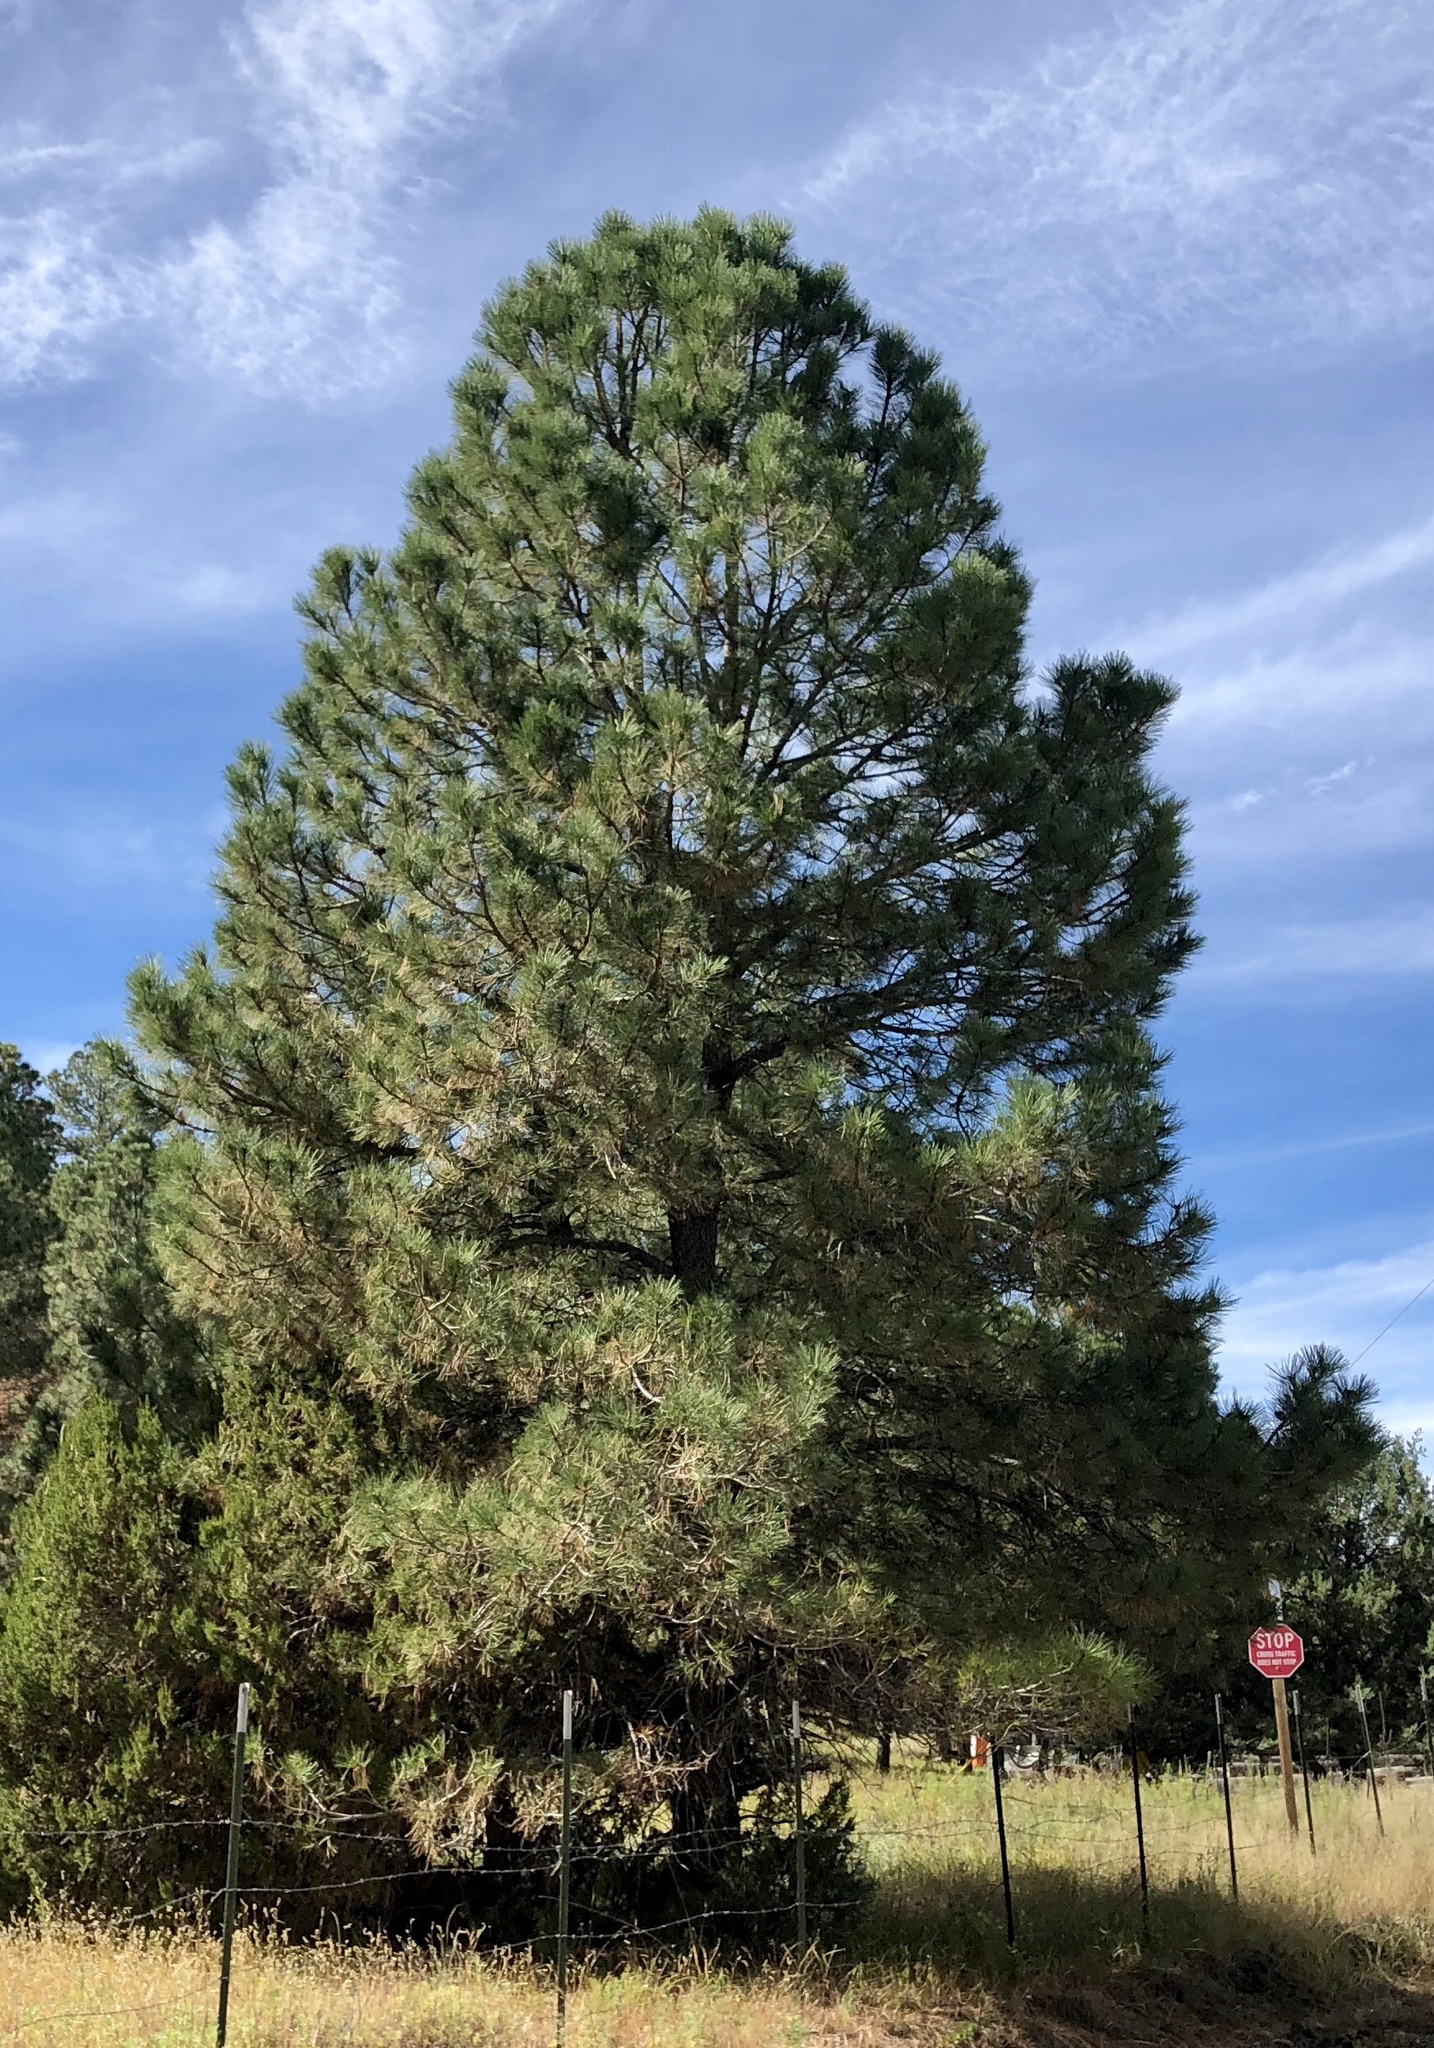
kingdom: Plantae
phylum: Tracheophyta
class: Pinopsida
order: Pinales
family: Pinaceae
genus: Pinus
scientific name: Pinus ponderosa
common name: Western yellow-pine
